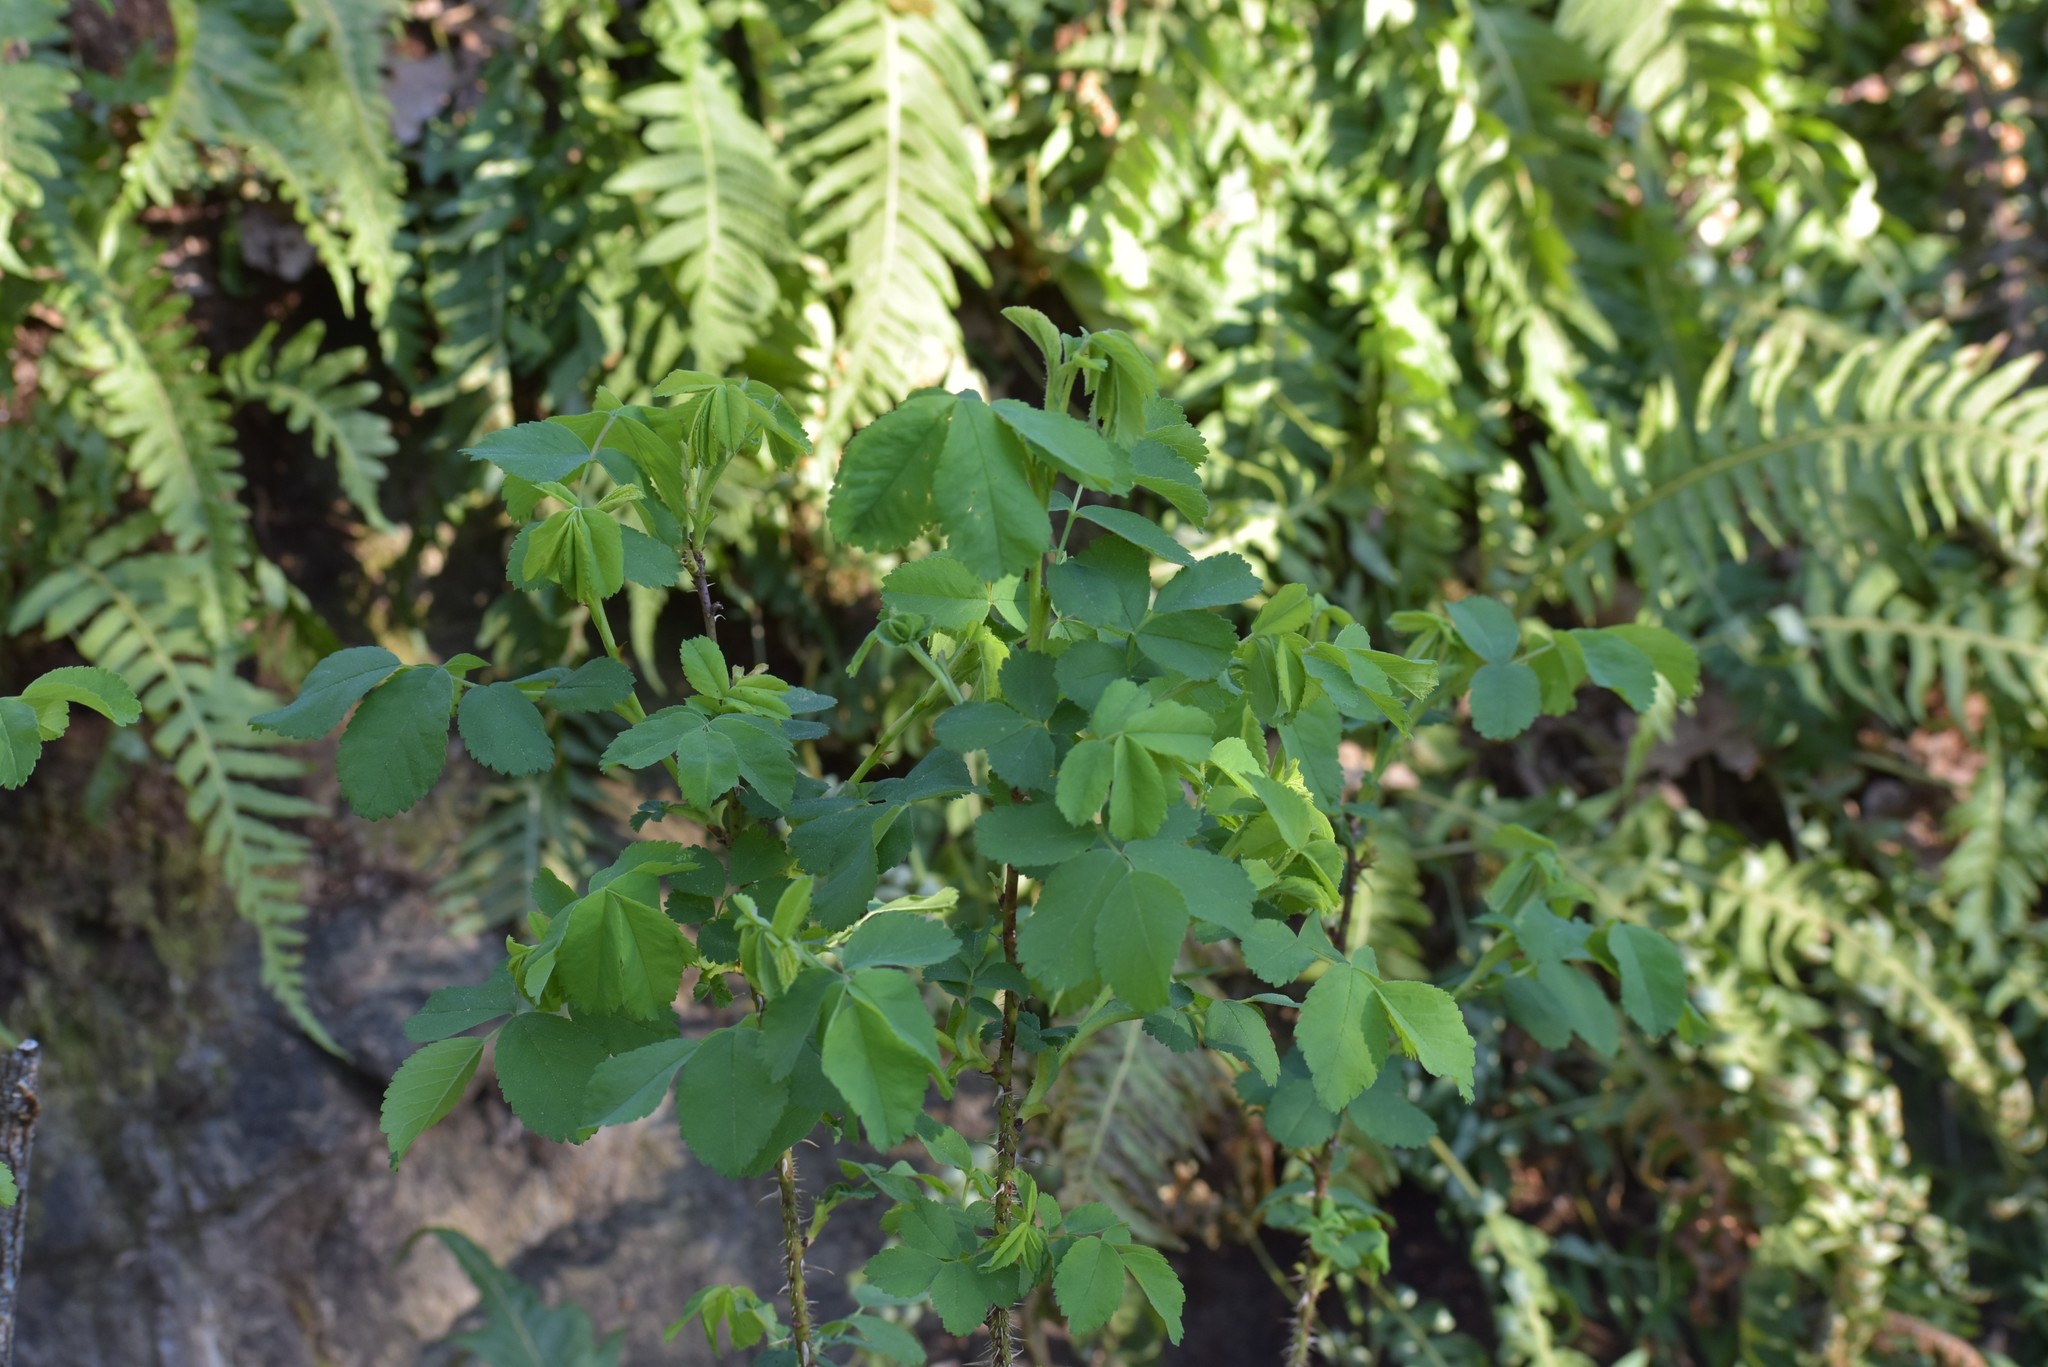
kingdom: Plantae
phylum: Tracheophyta
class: Magnoliopsida
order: Rosales
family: Rosaceae
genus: Rosa
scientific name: Rosa gymnocarpa
